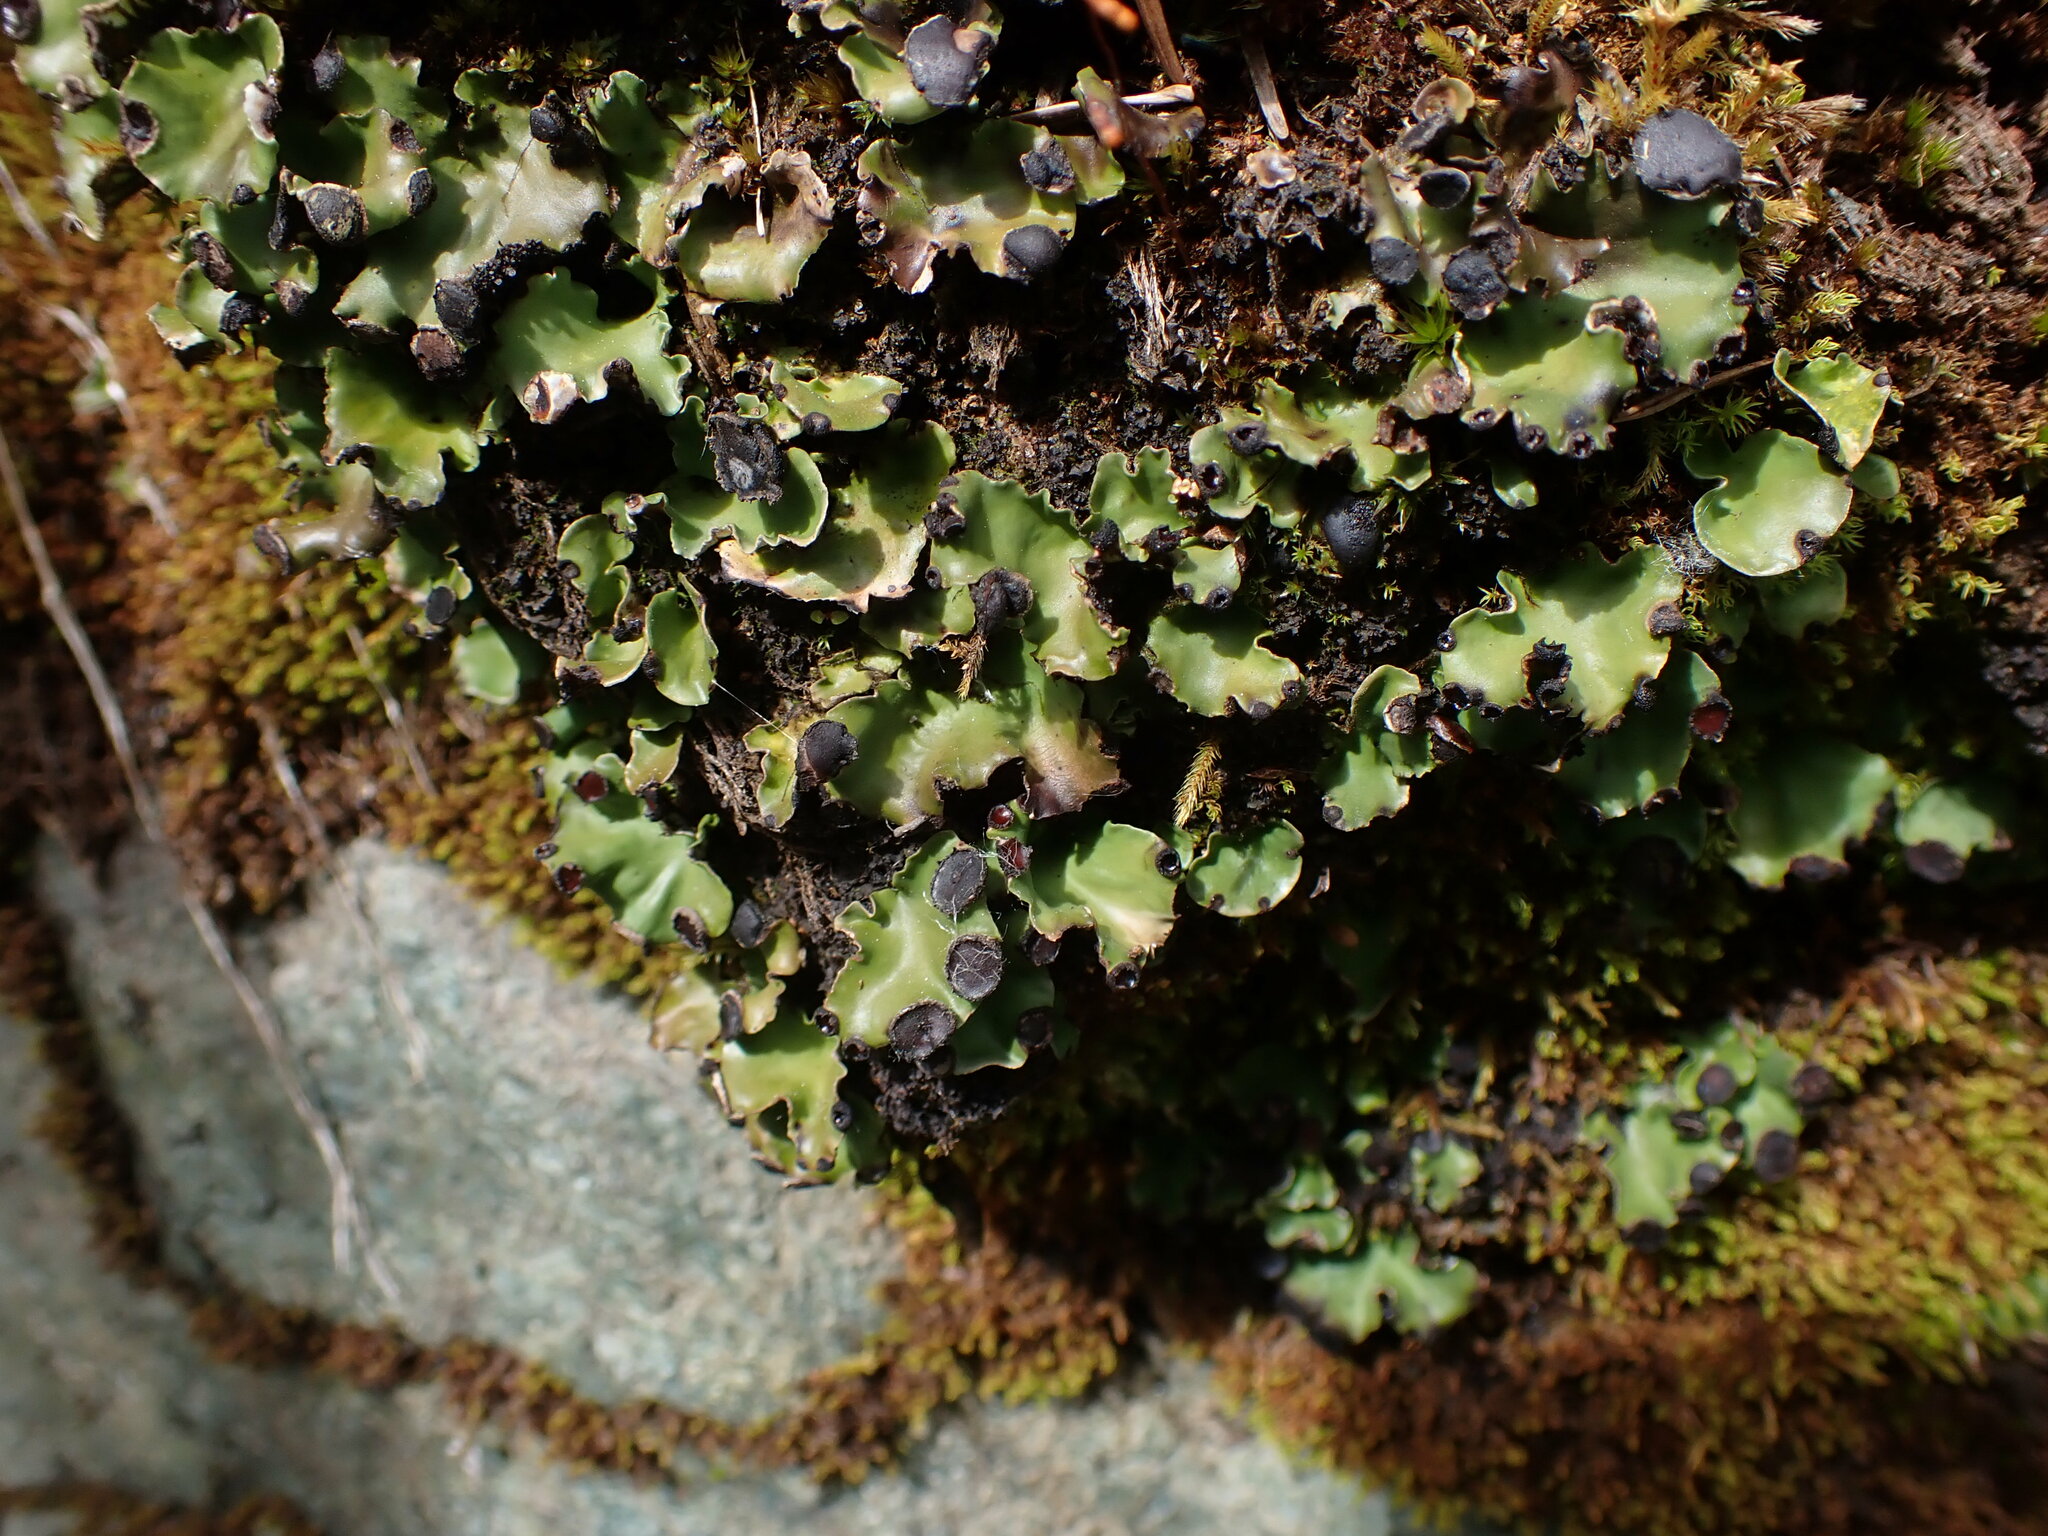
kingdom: Fungi
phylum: Ascomycota
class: Lecanoromycetes
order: Peltigerales
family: Peltigeraceae
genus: Peltigera
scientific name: Peltigera venosa
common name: Pixie gowns lichen
